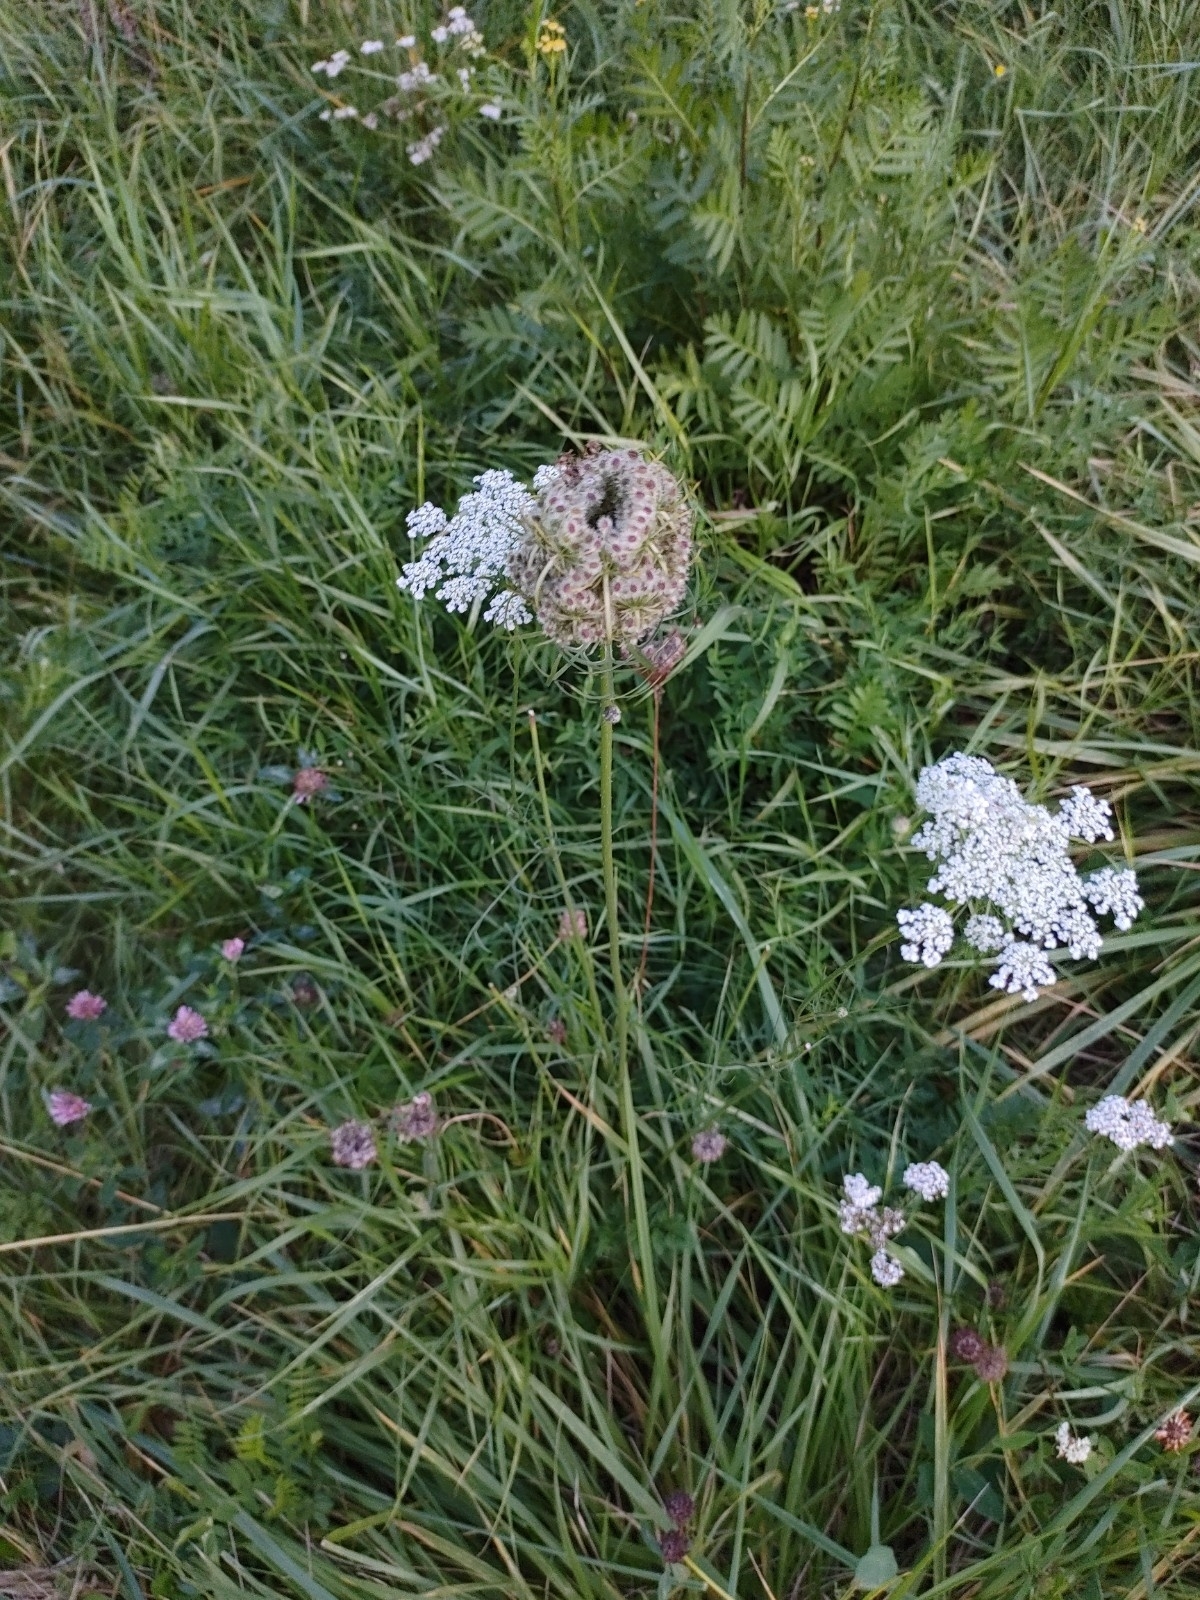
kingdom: Plantae
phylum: Tracheophyta
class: Magnoliopsida
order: Apiales
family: Apiaceae
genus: Daucus
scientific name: Daucus carota
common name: Wild carrot
